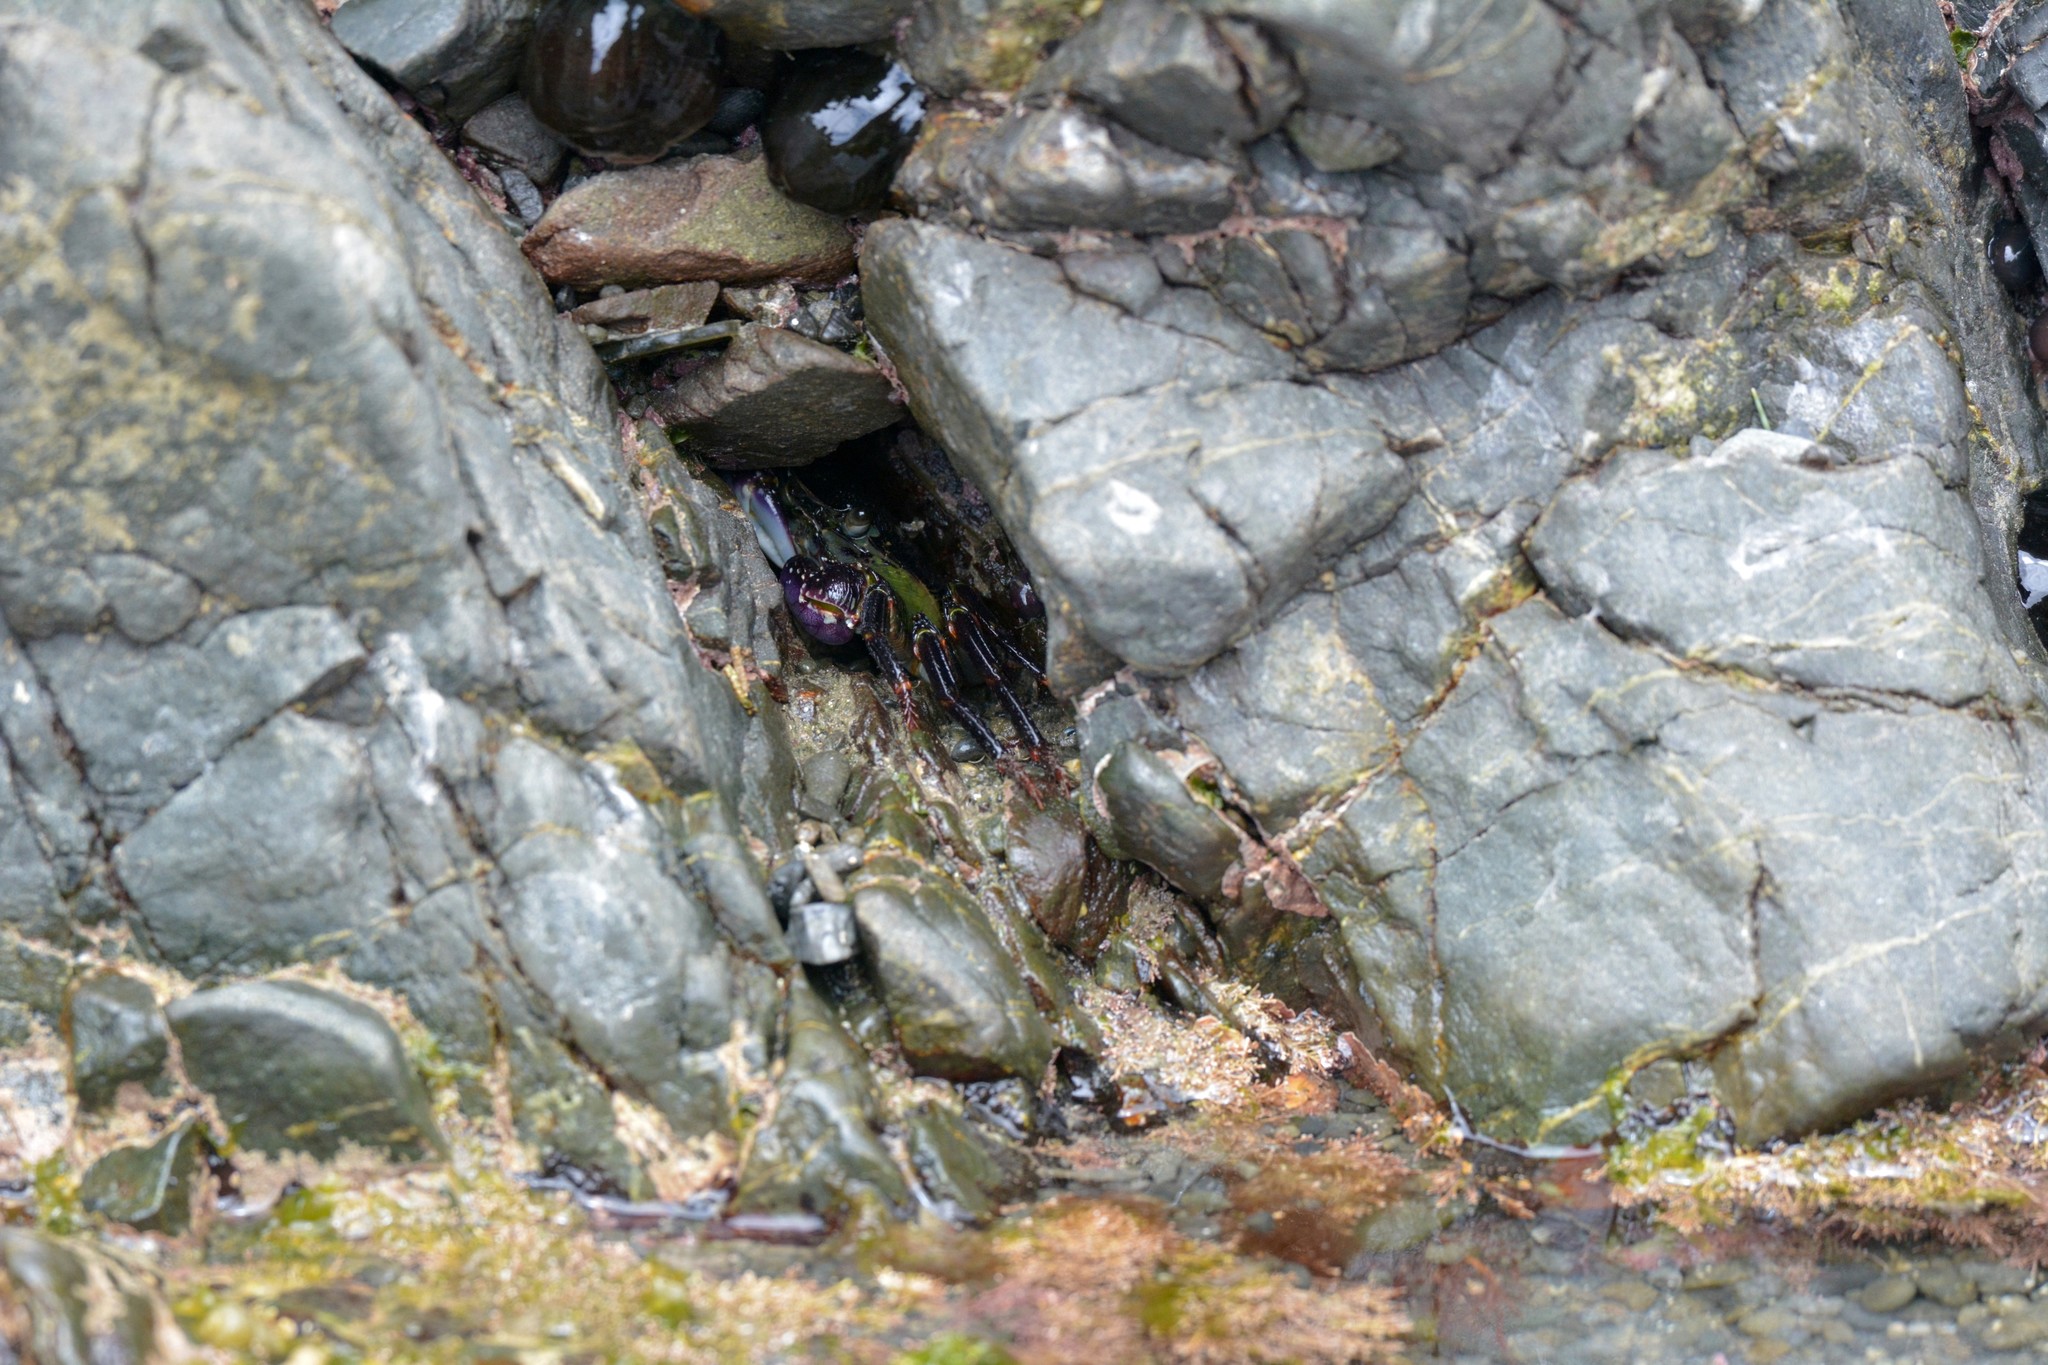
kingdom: Animalia
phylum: Arthropoda
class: Malacostraca
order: Decapoda
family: Grapsidae
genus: Leptograpsus
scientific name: Leptograpsus variegatus
